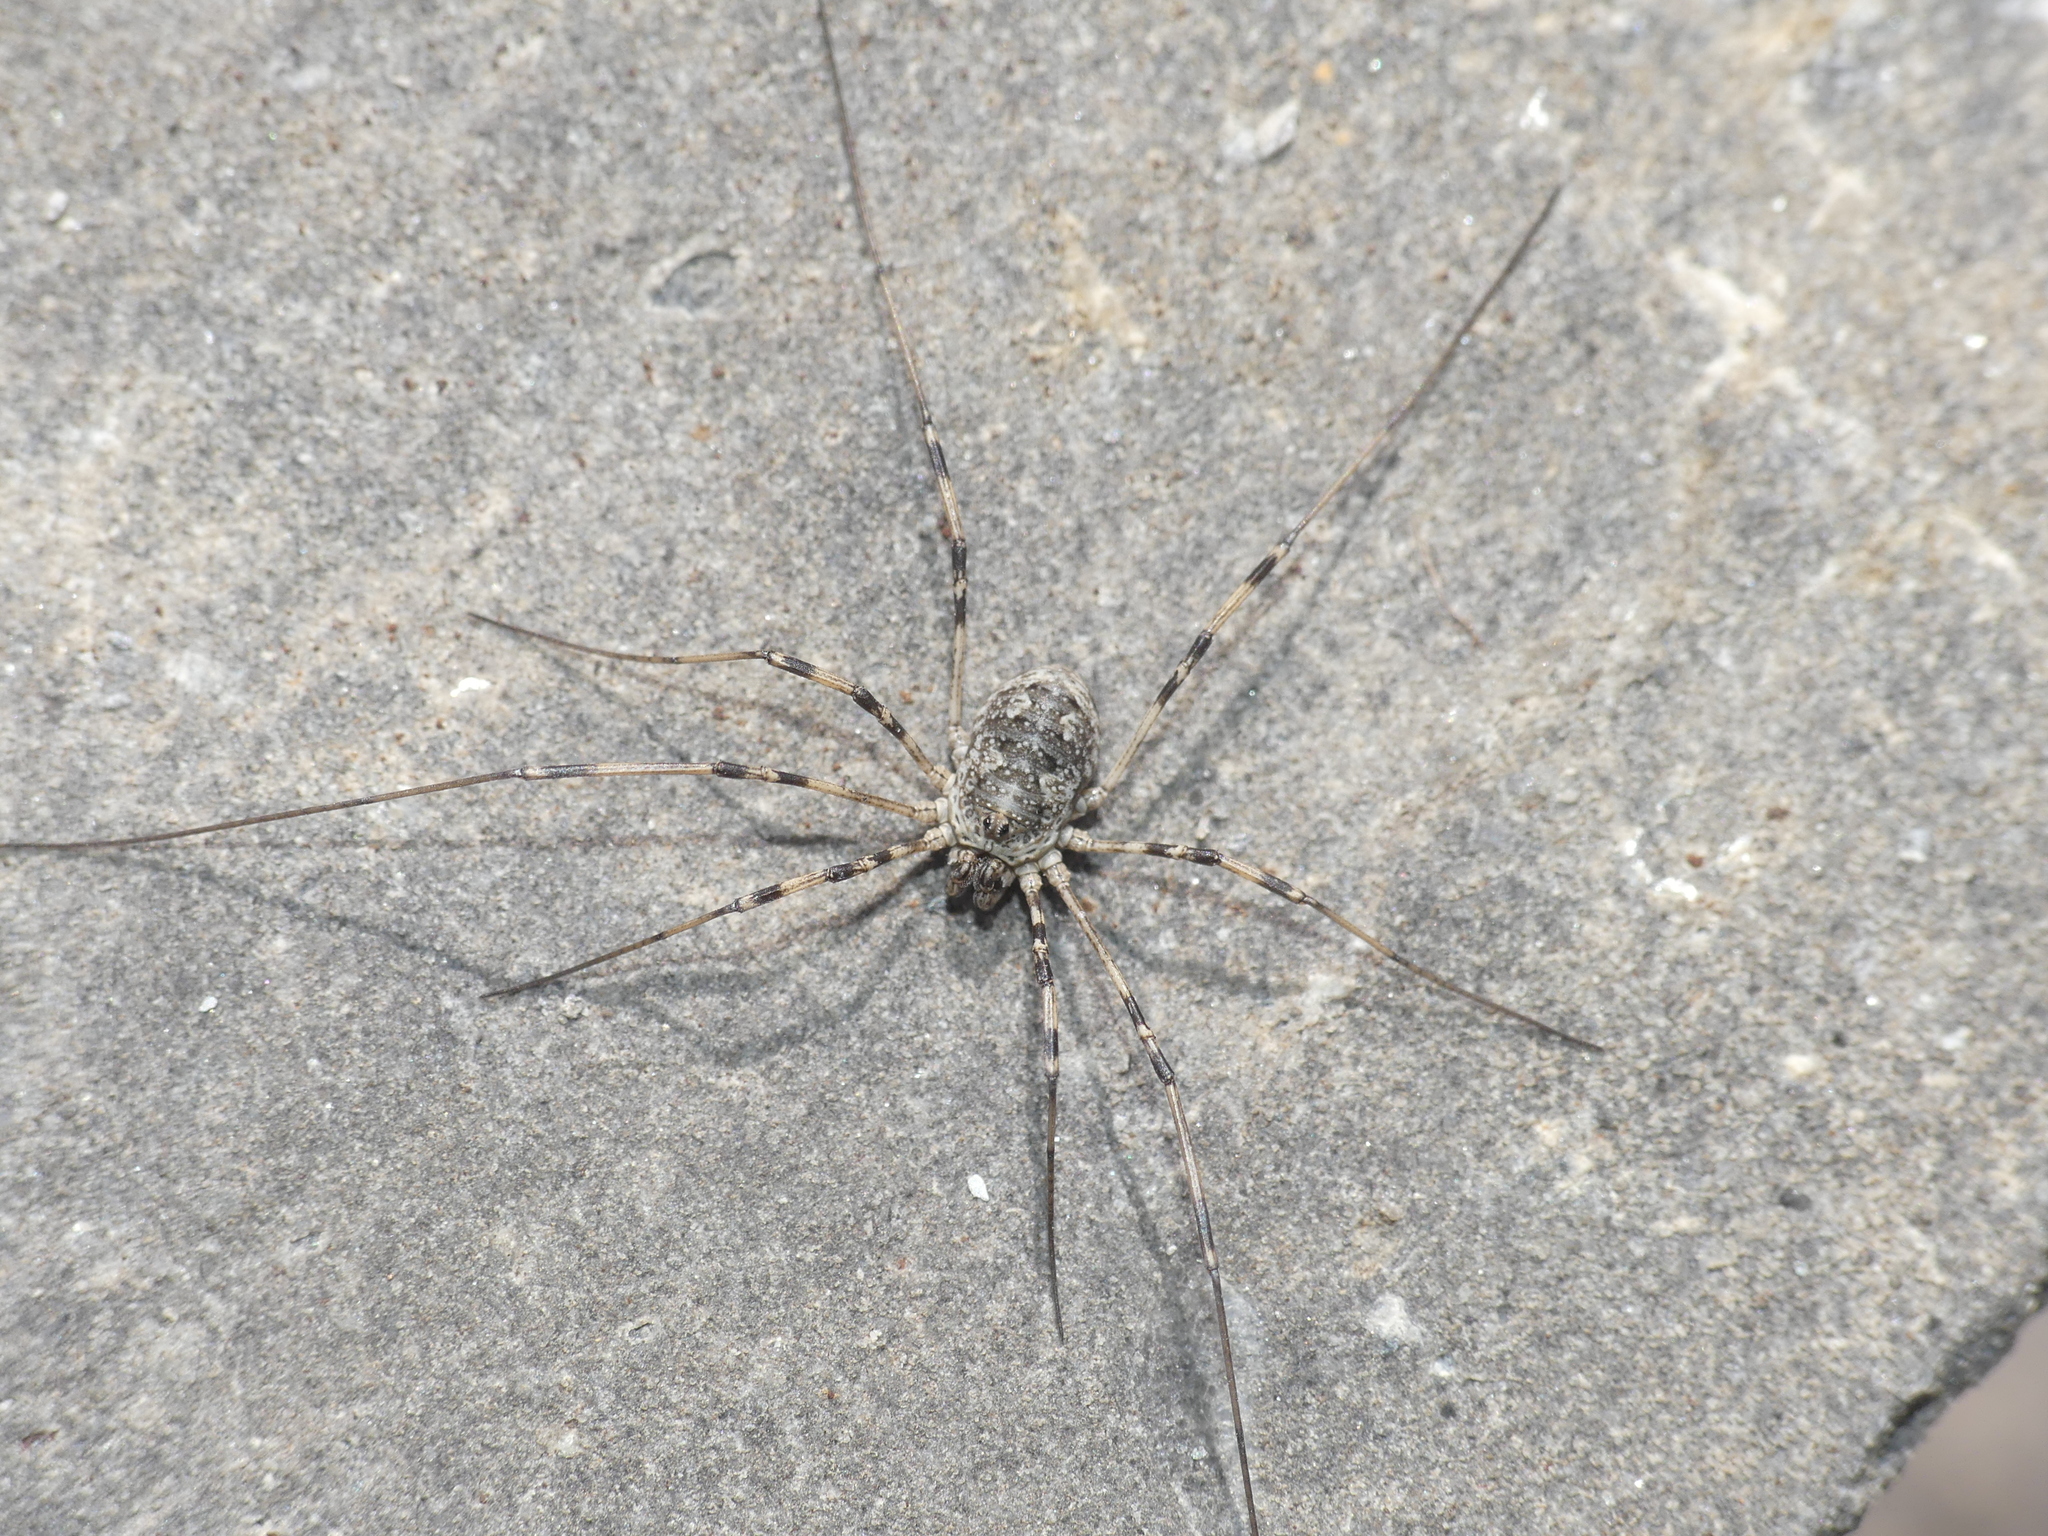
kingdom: Animalia
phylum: Arthropoda
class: Arachnida
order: Opiliones
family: Phalangiidae
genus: Mitopus
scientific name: Mitopus glacialis
